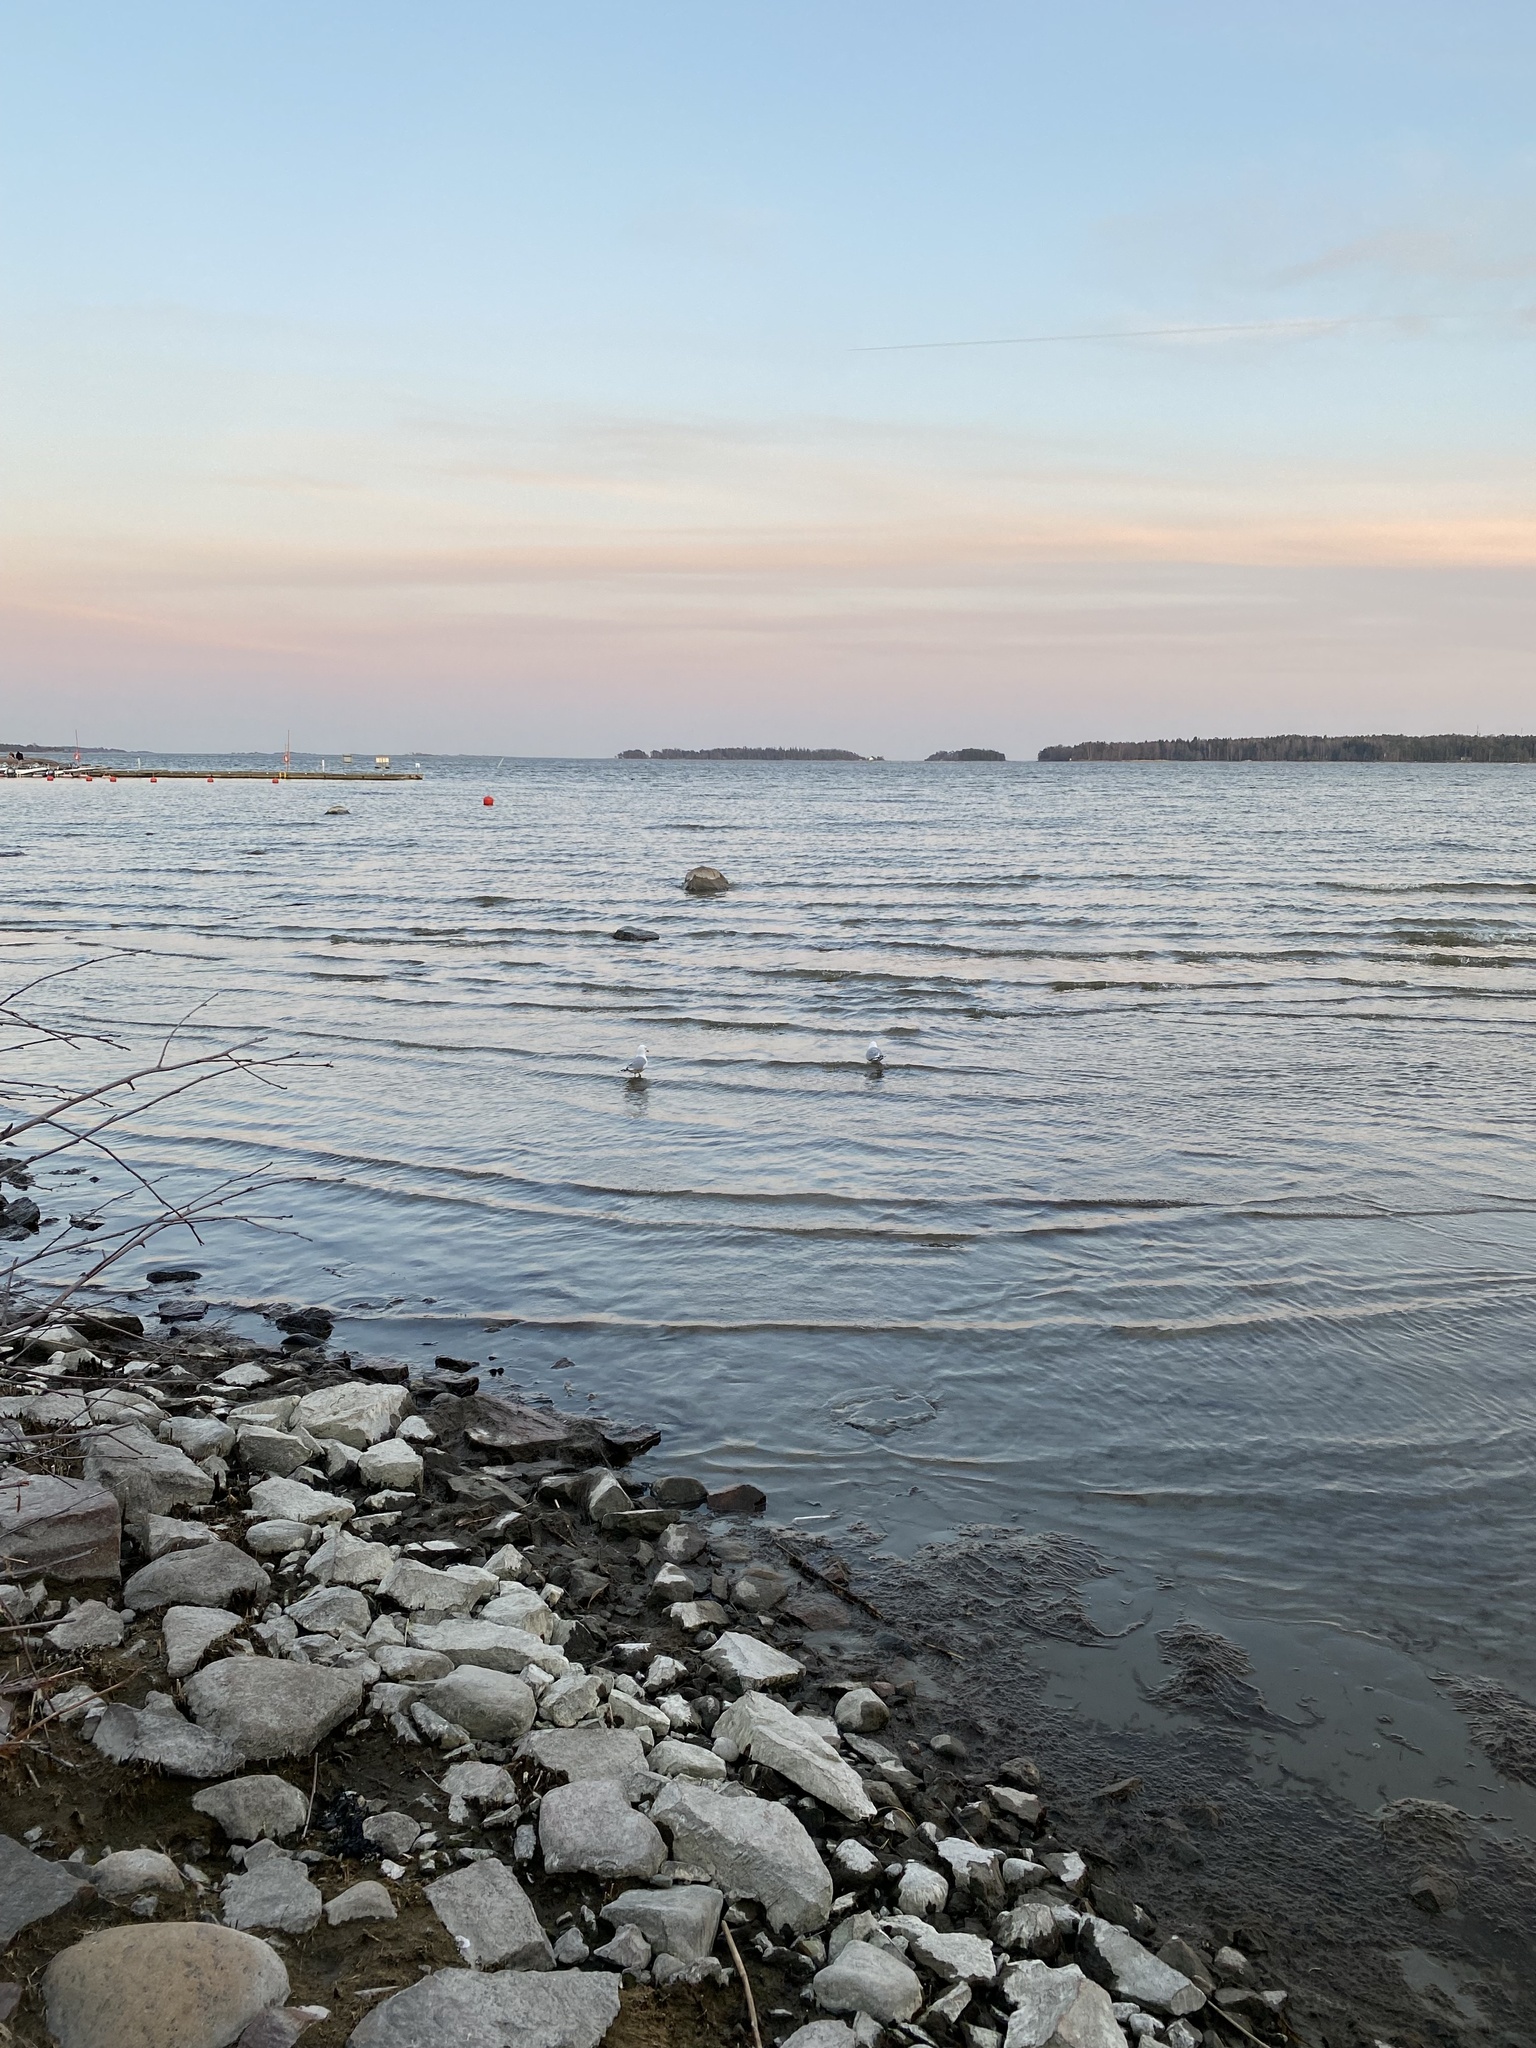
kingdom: Animalia
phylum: Chordata
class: Aves
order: Charadriiformes
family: Laridae
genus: Larus
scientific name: Larus canus
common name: Mew gull
